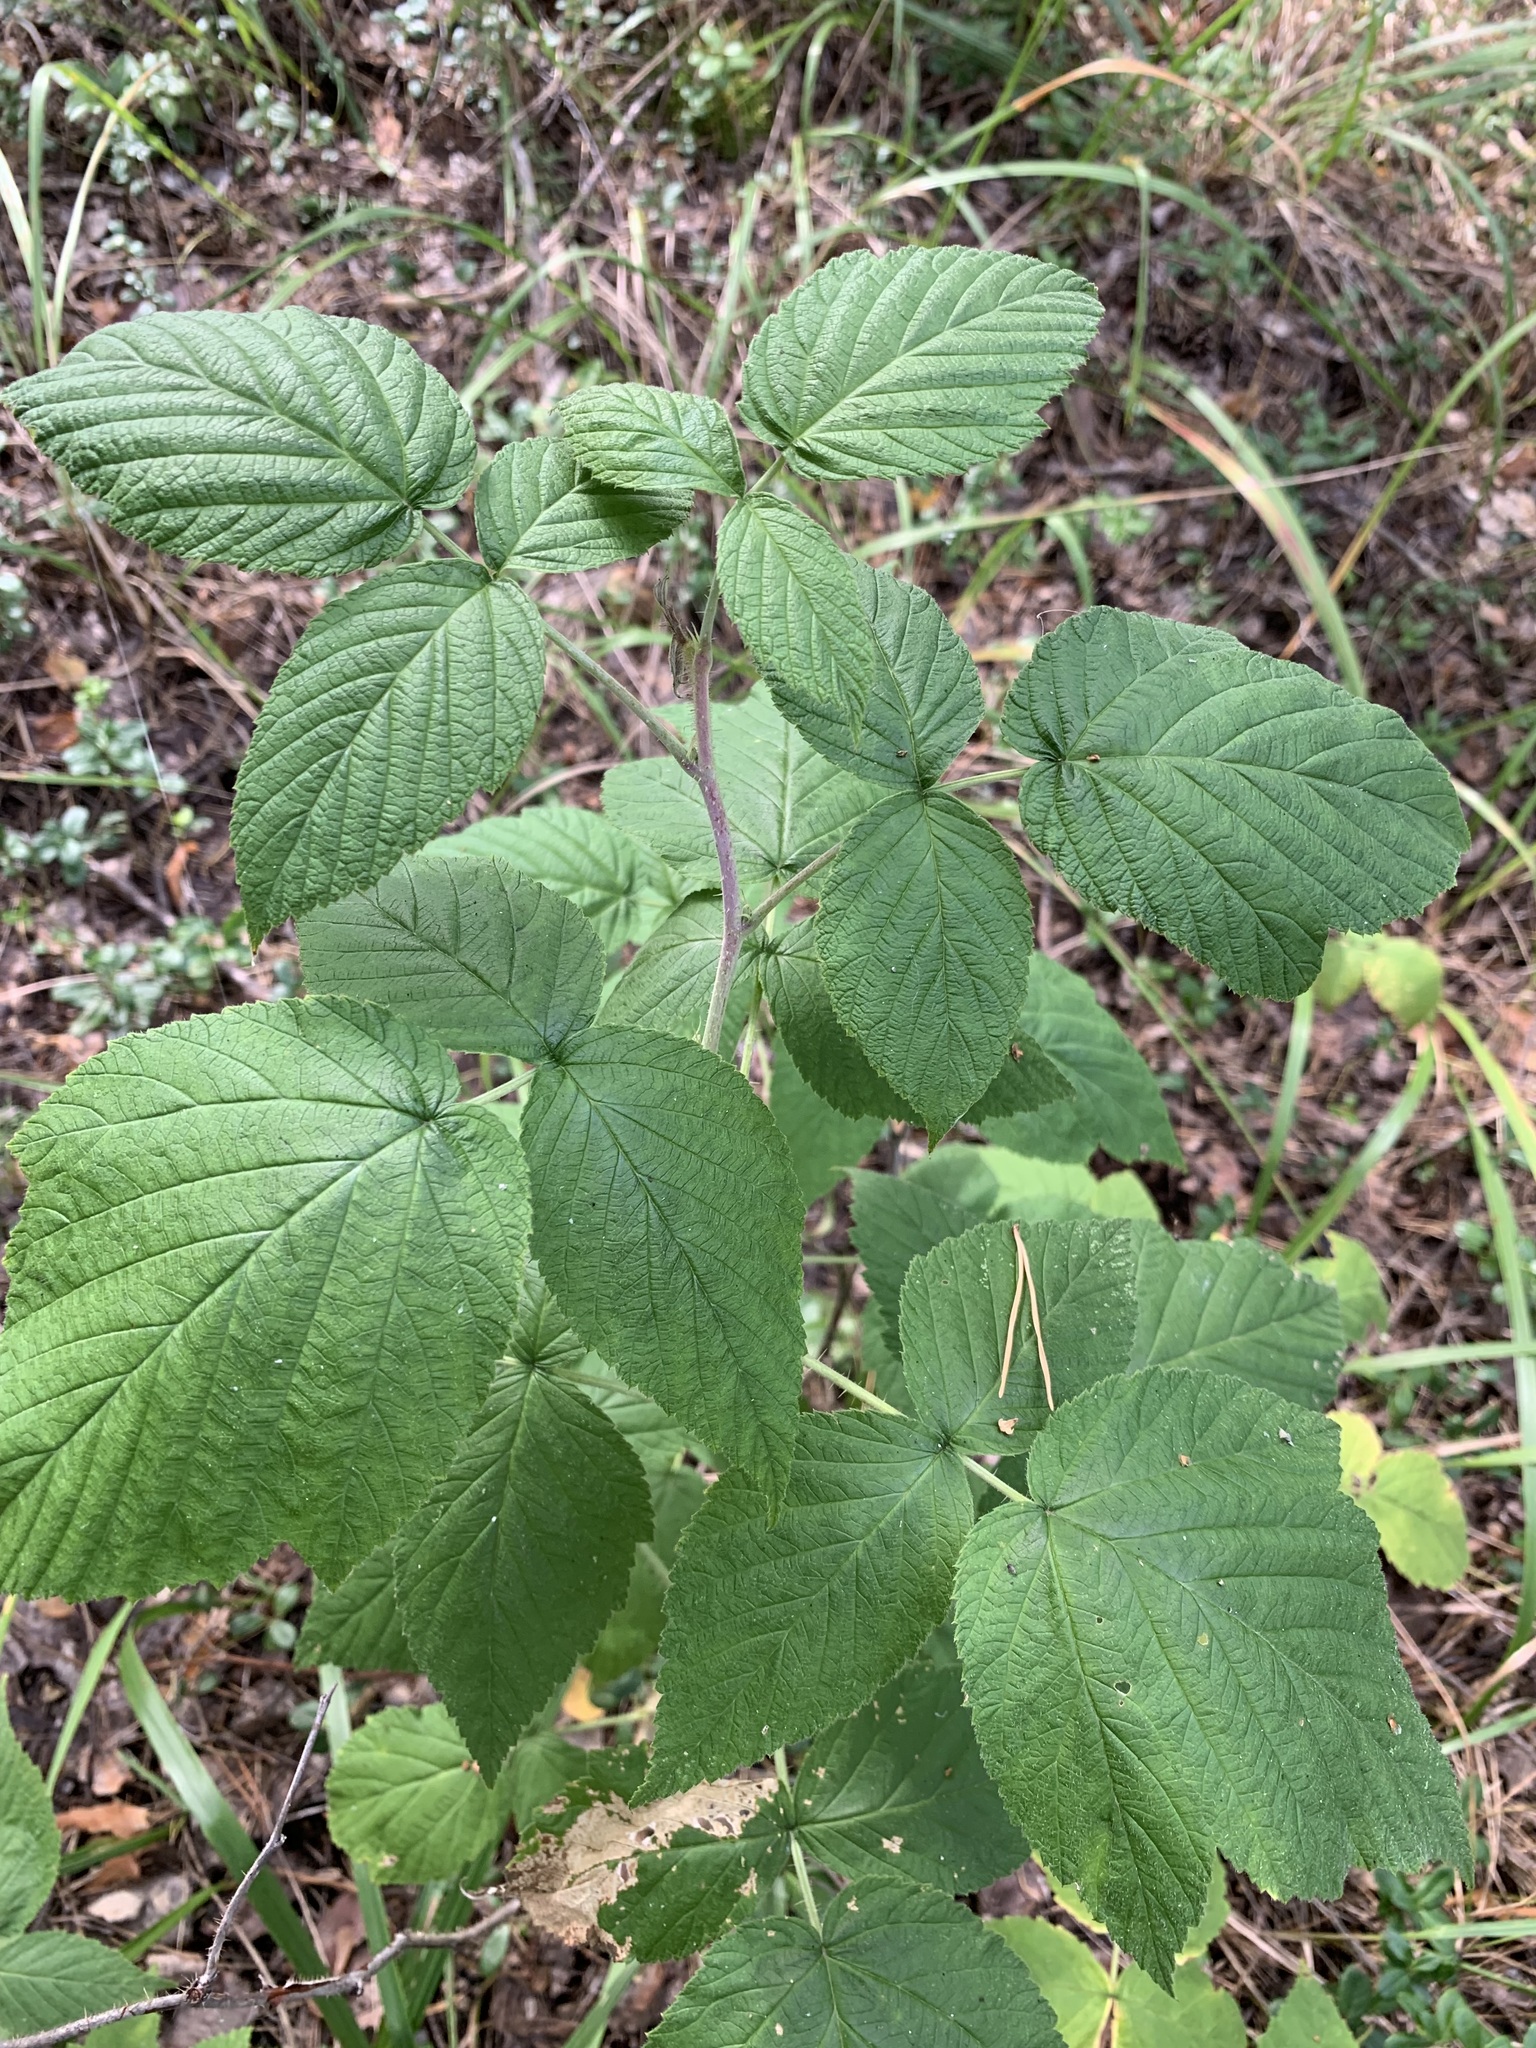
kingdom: Plantae
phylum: Tracheophyta
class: Magnoliopsida
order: Rosales
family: Rosaceae
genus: Rubus
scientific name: Rubus idaeus
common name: Raspberry
